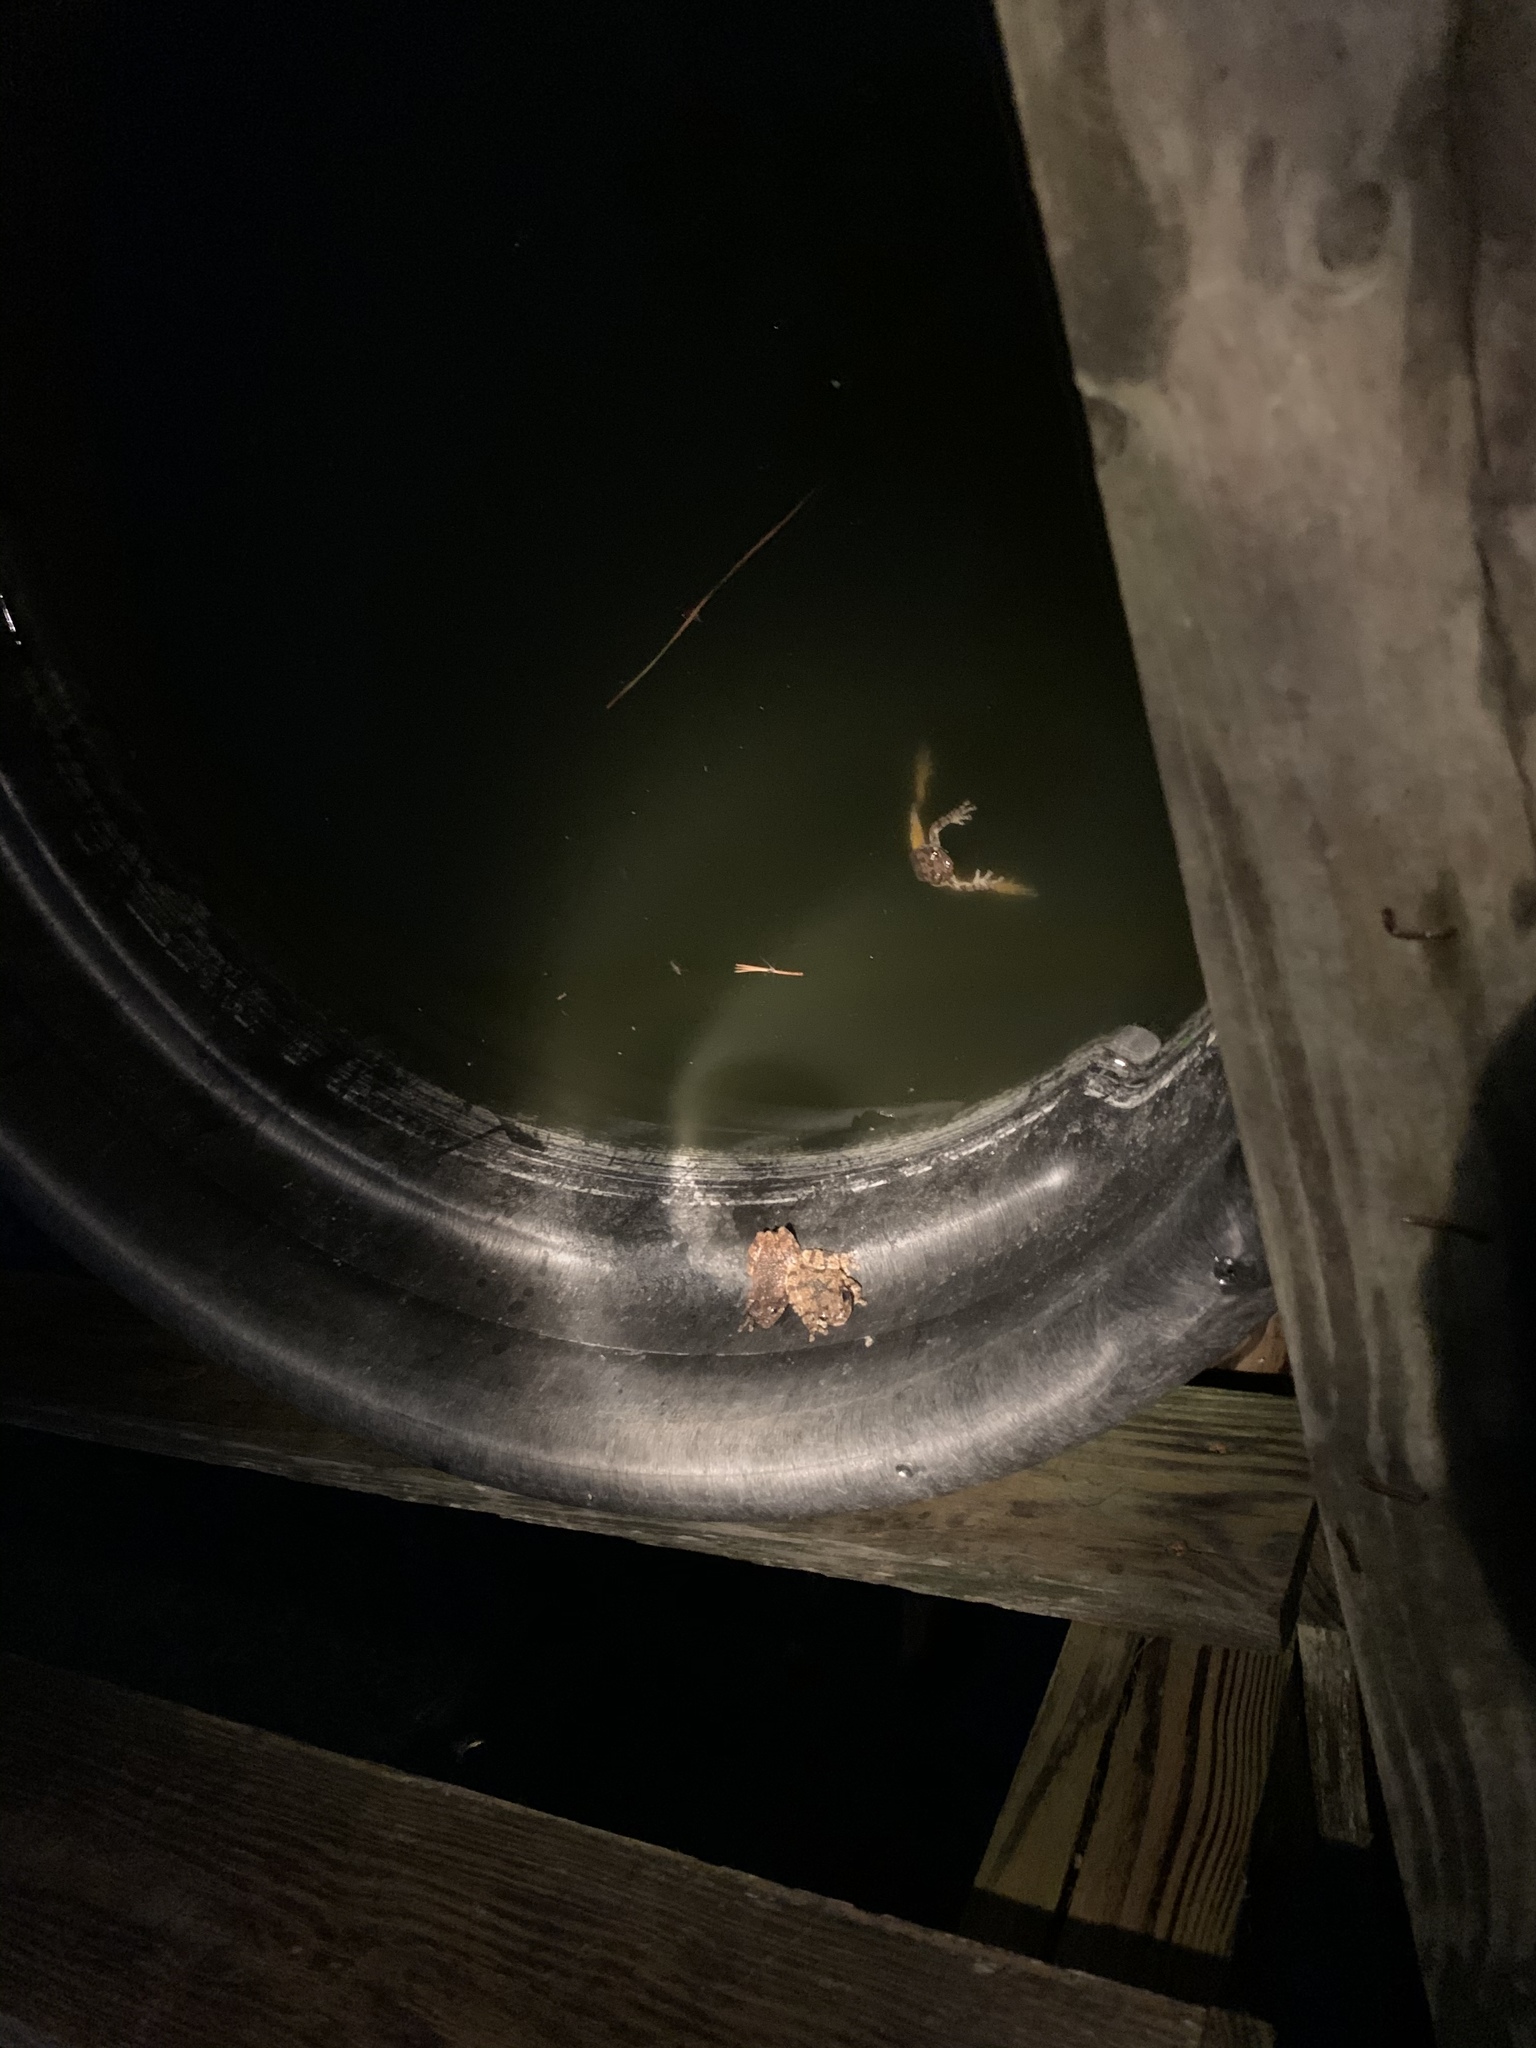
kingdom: Animalia
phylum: Chordata
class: Amphibia
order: Anura
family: Hylidae
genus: Dryophytes
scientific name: Dryophytes chrysoscelis
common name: Cope's gray treefrog
